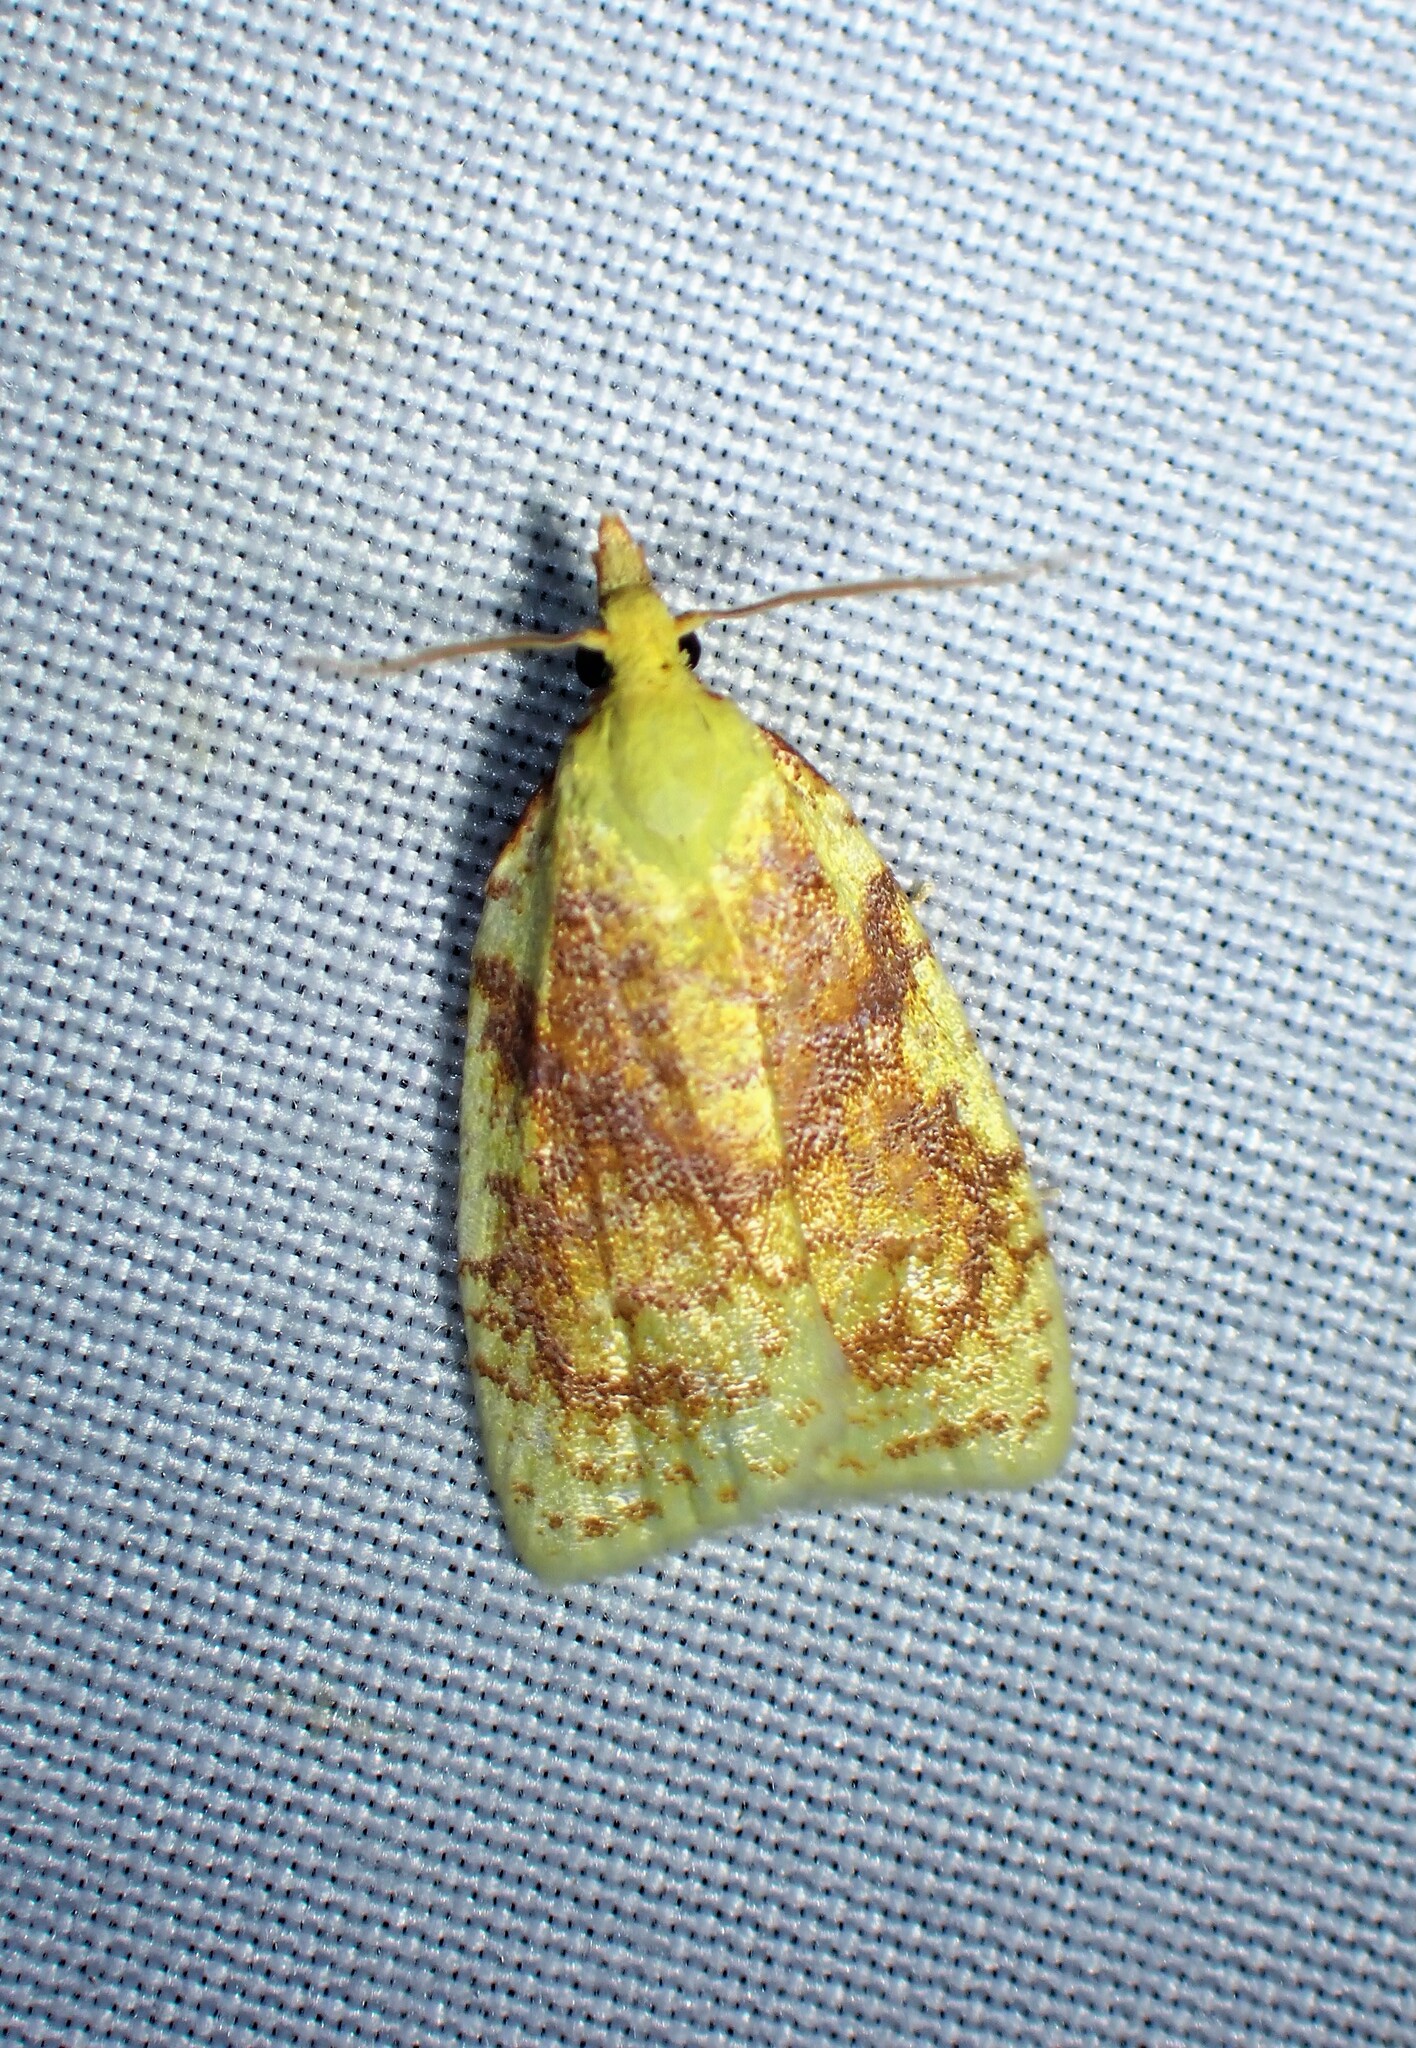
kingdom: Animalia
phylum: Arthropoda
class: Insecta
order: Lepidoptera
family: Tortricidae
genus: Cenopis
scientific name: Cenopis pettitana
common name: Maple-basswood leafroller moth
